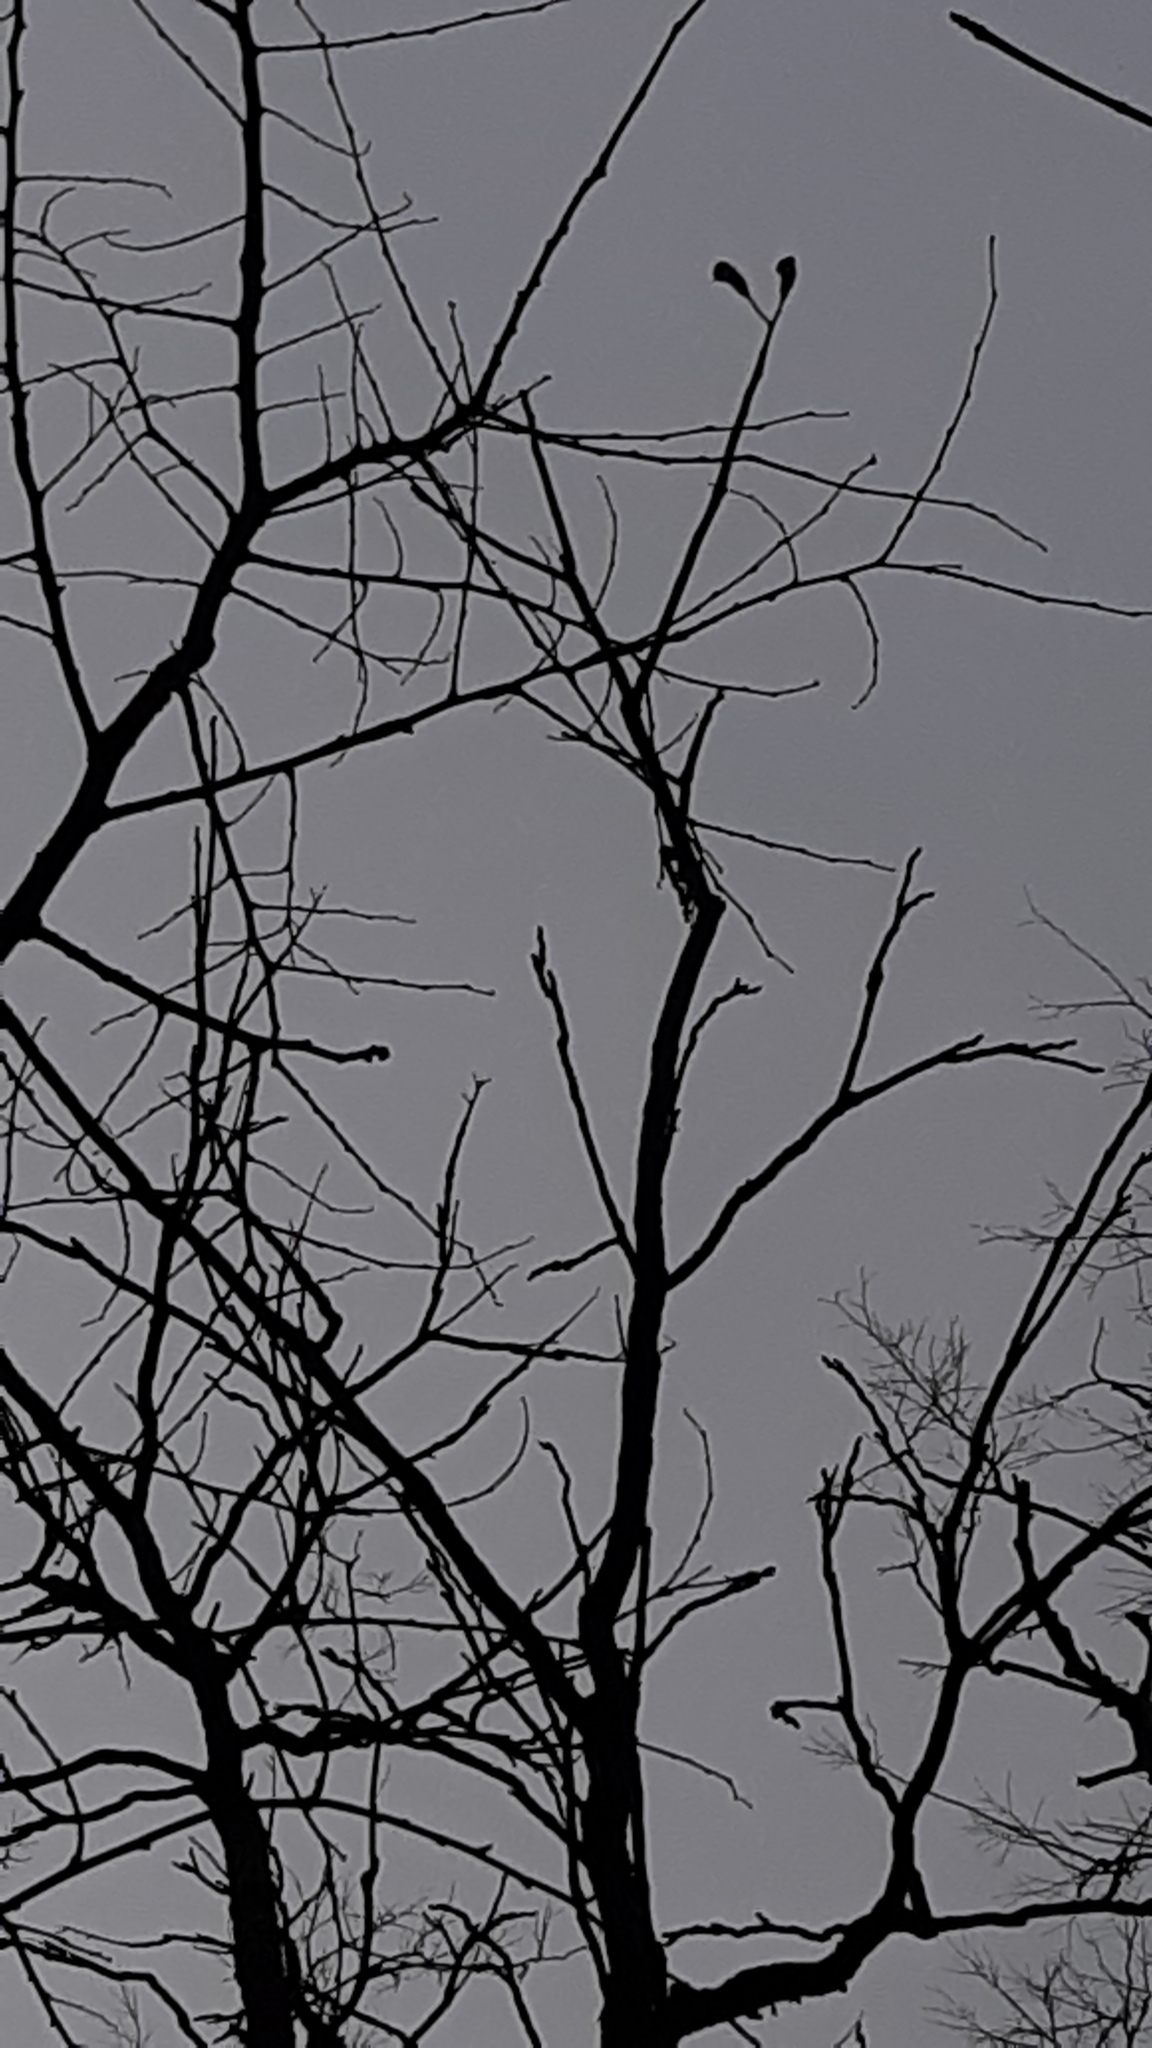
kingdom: Plantae
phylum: Tracheophyta
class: Magnoliopsida
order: Fabales
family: Fabaceae
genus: Gymnocladus
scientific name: Gymnocladus dioicus
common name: Kentucky coffee-tree
